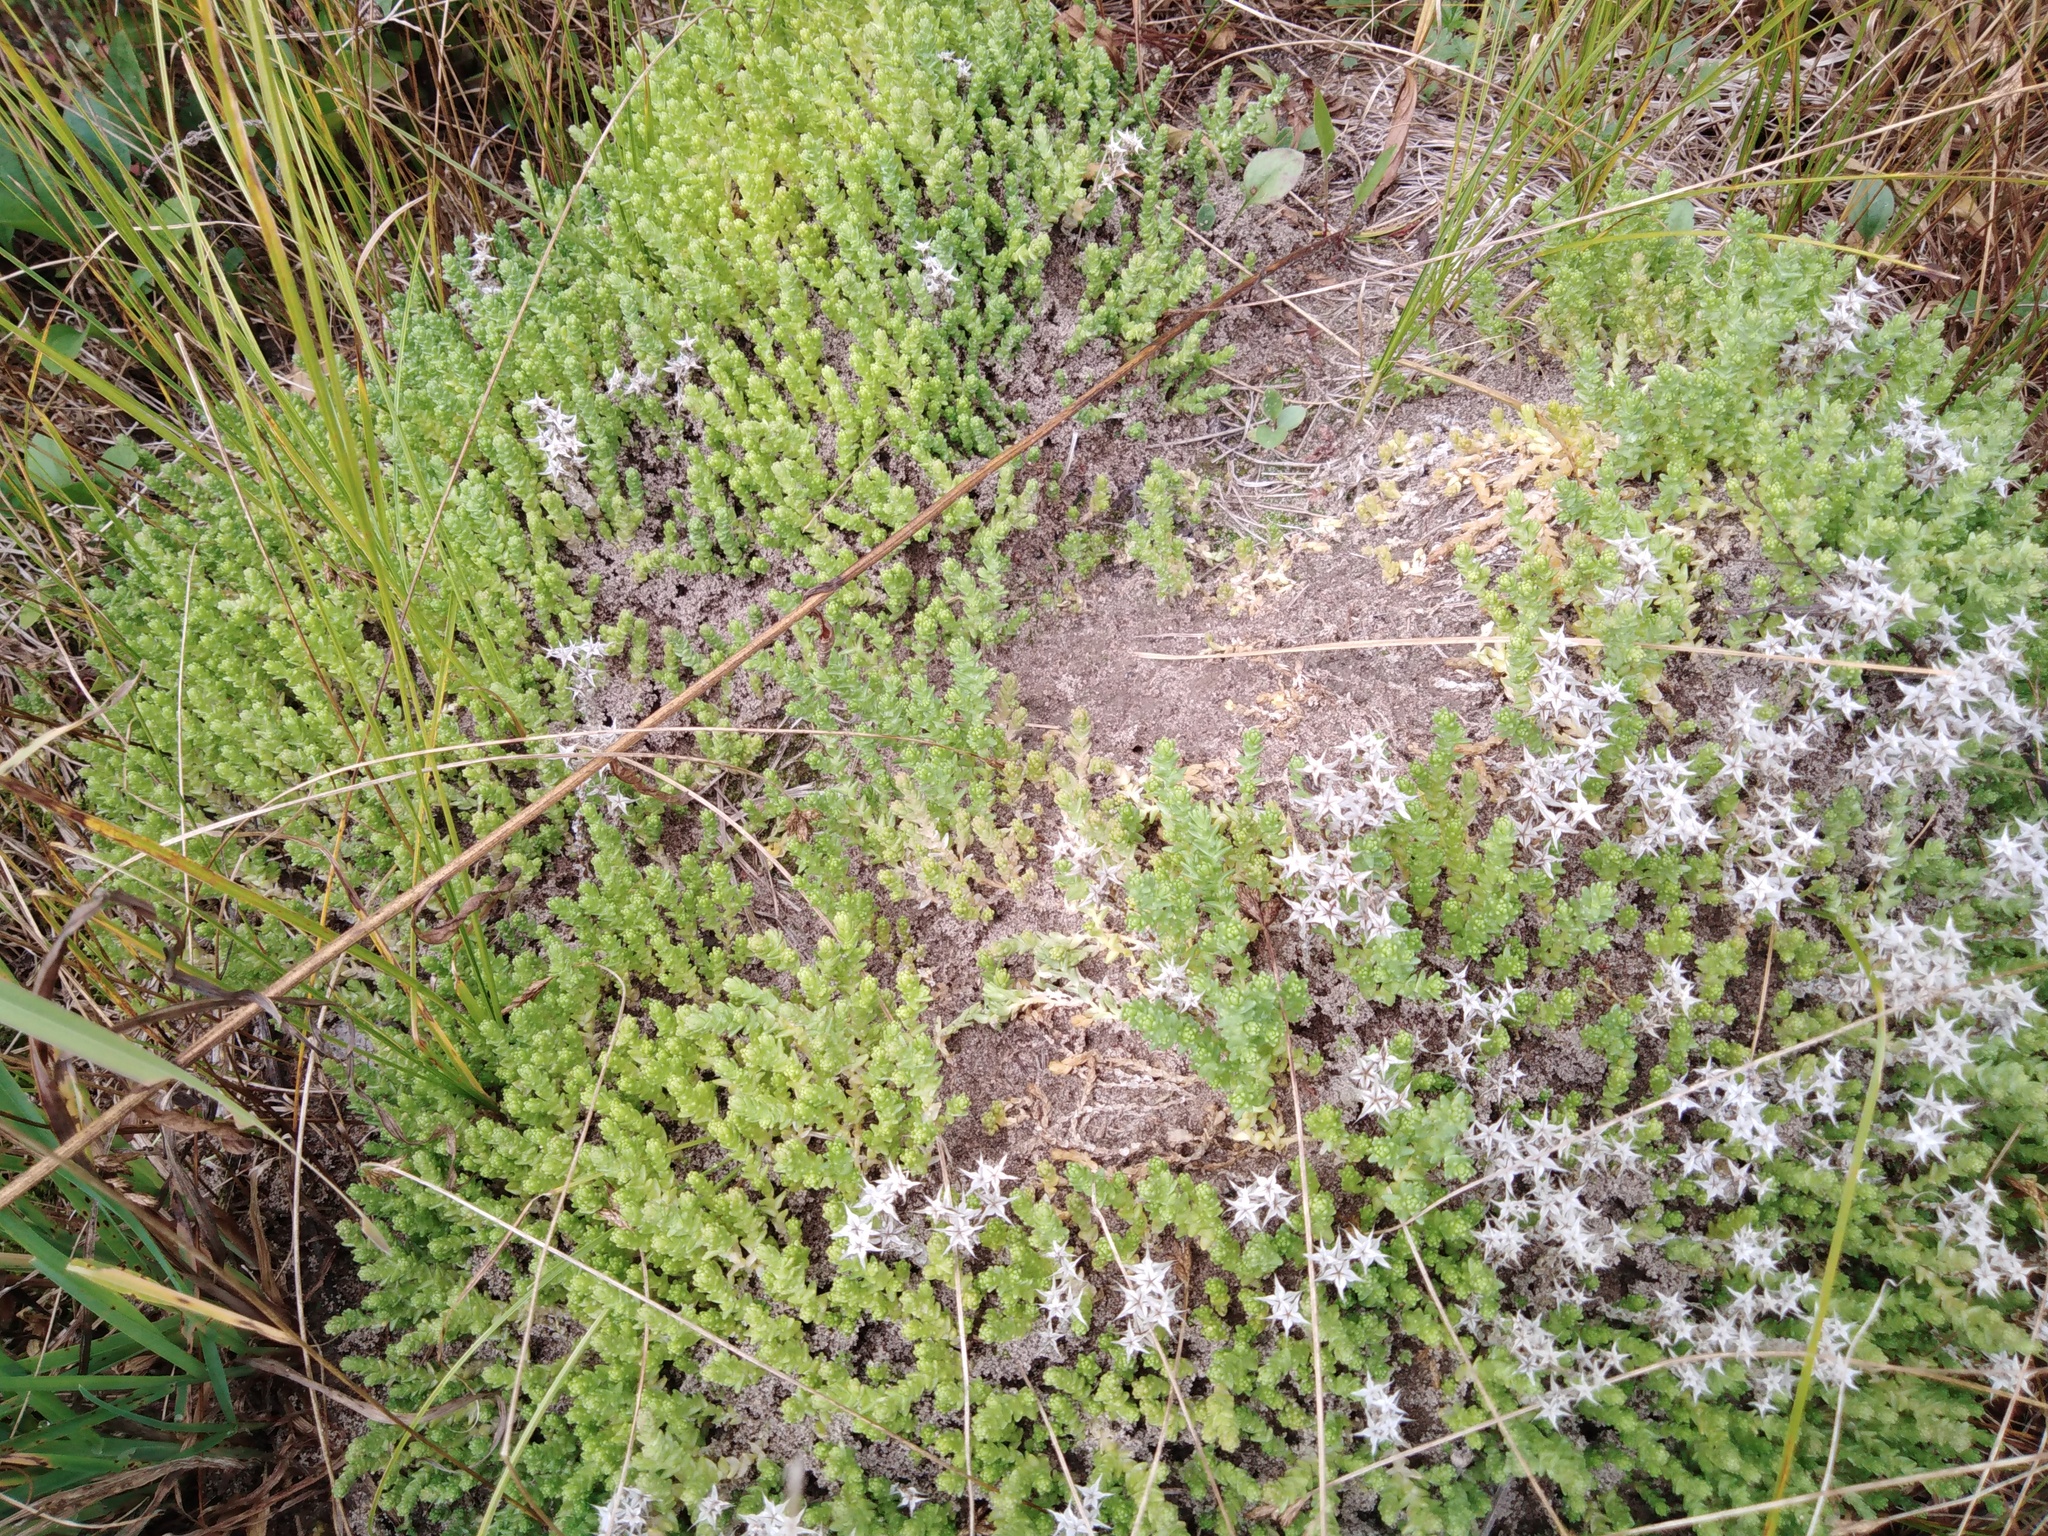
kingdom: Plantae
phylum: Tracheophyta
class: Magnoliopsida
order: Saxifragales
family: Crassulaceae
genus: Sedum
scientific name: Sedum acre
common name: Biting stonecrop
